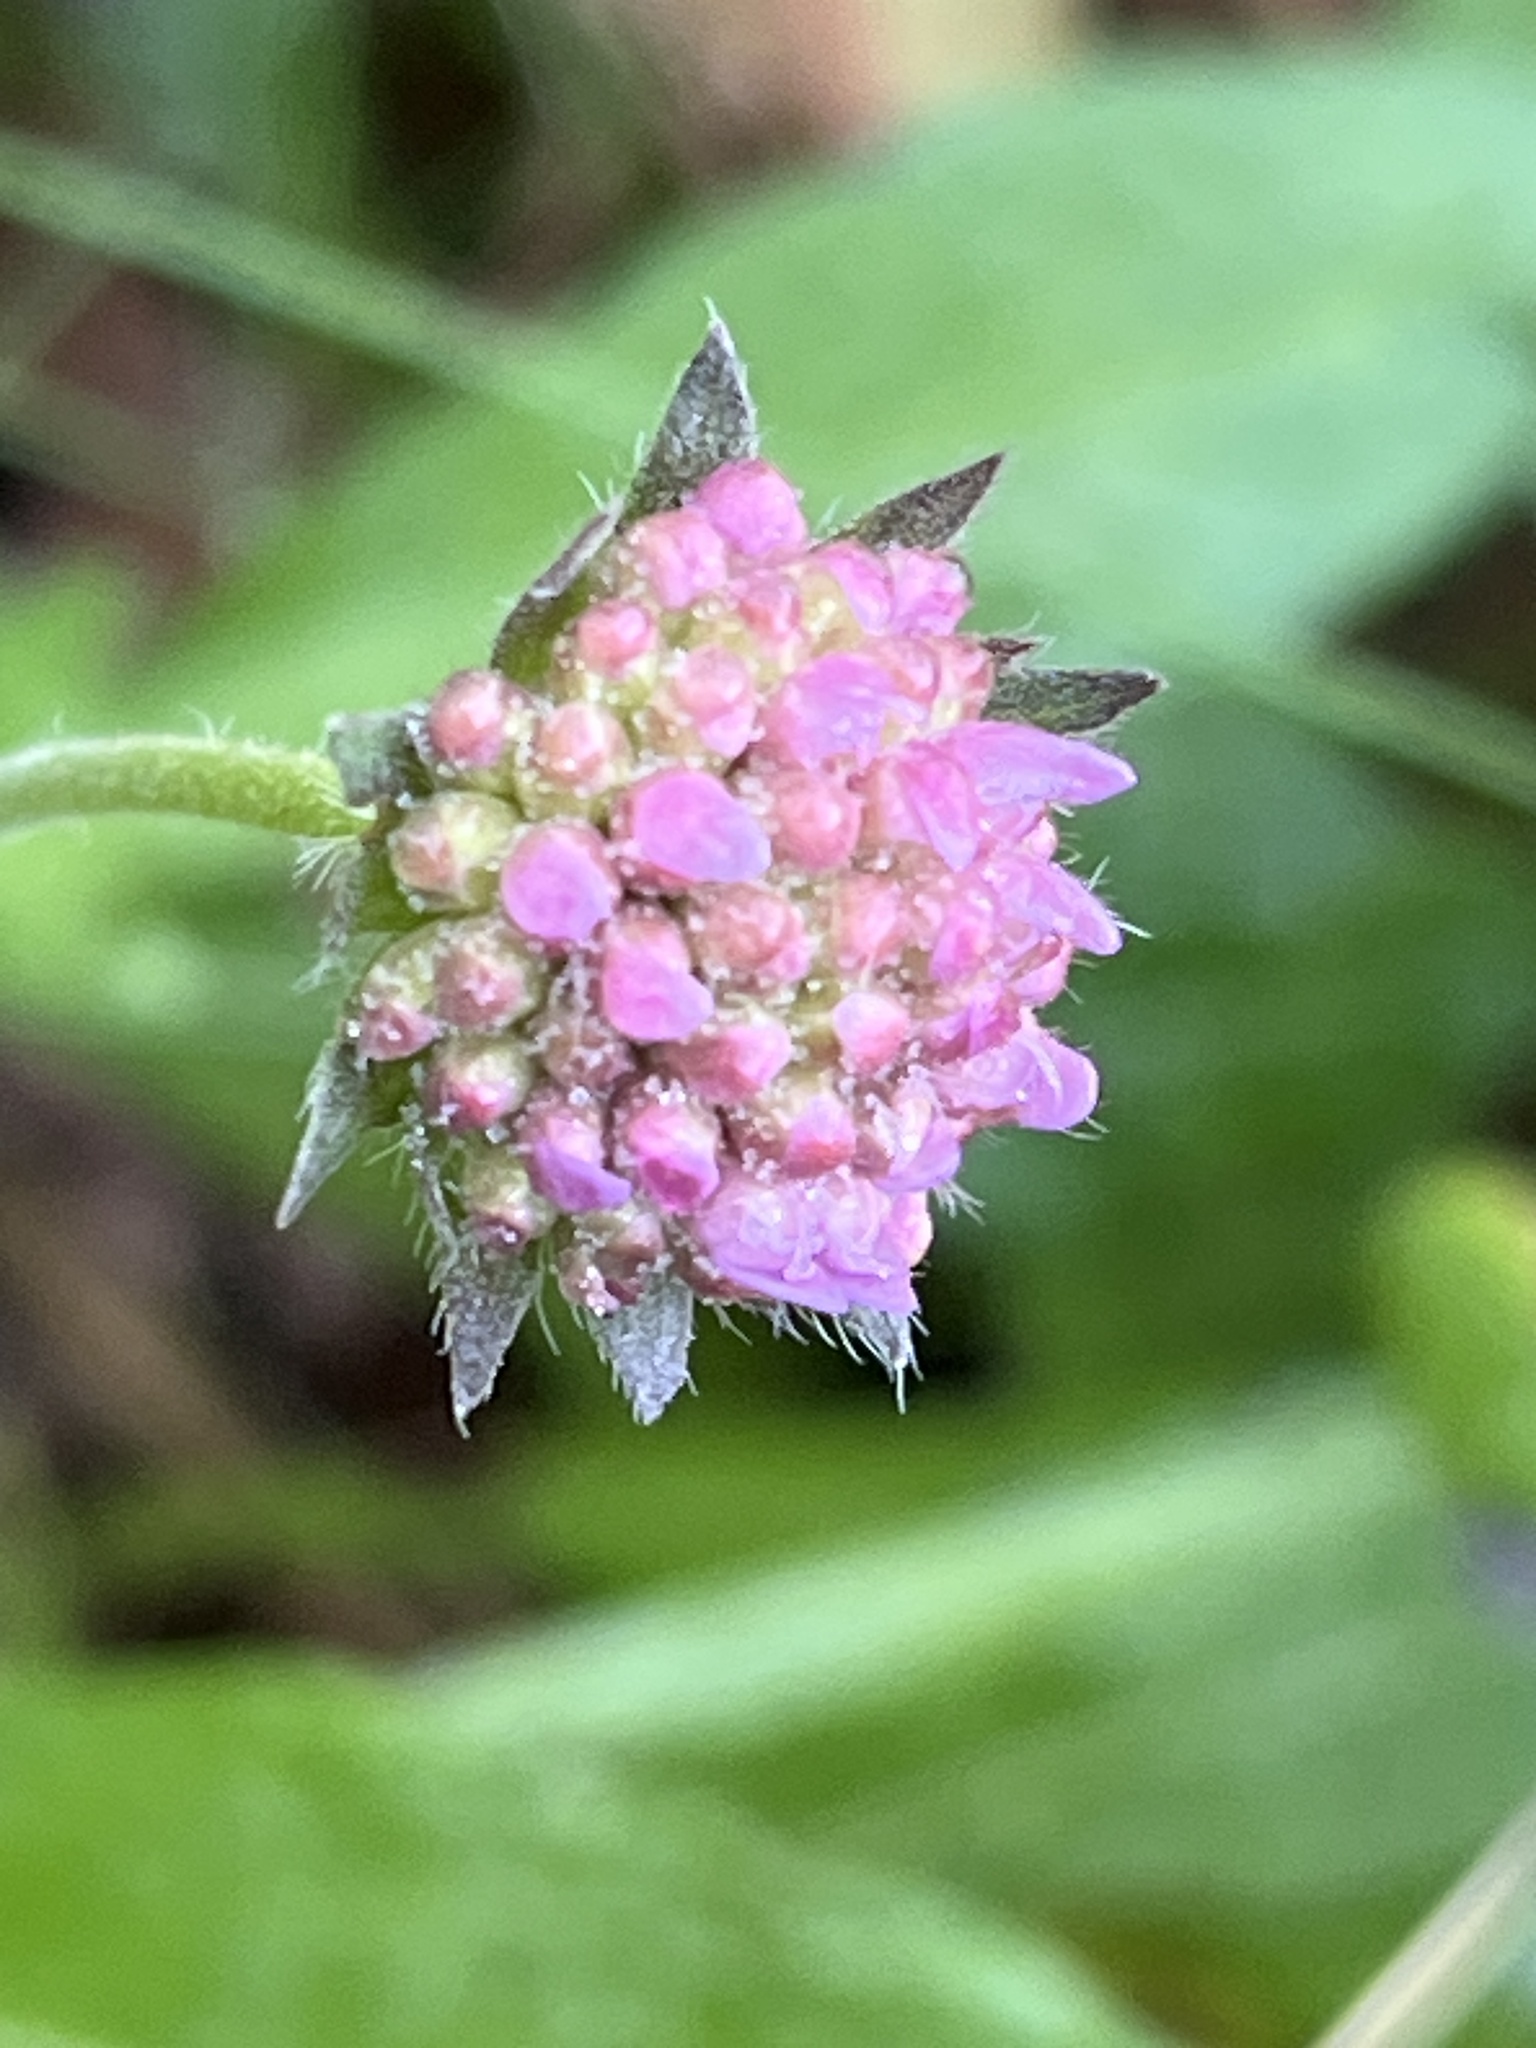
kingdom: Plantae
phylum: Tracheophyta
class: Magnoliopsida
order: Dipsacales
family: Caprifoliaceae
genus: Knautia
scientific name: Knautia arvensis
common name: Field scabiosa
